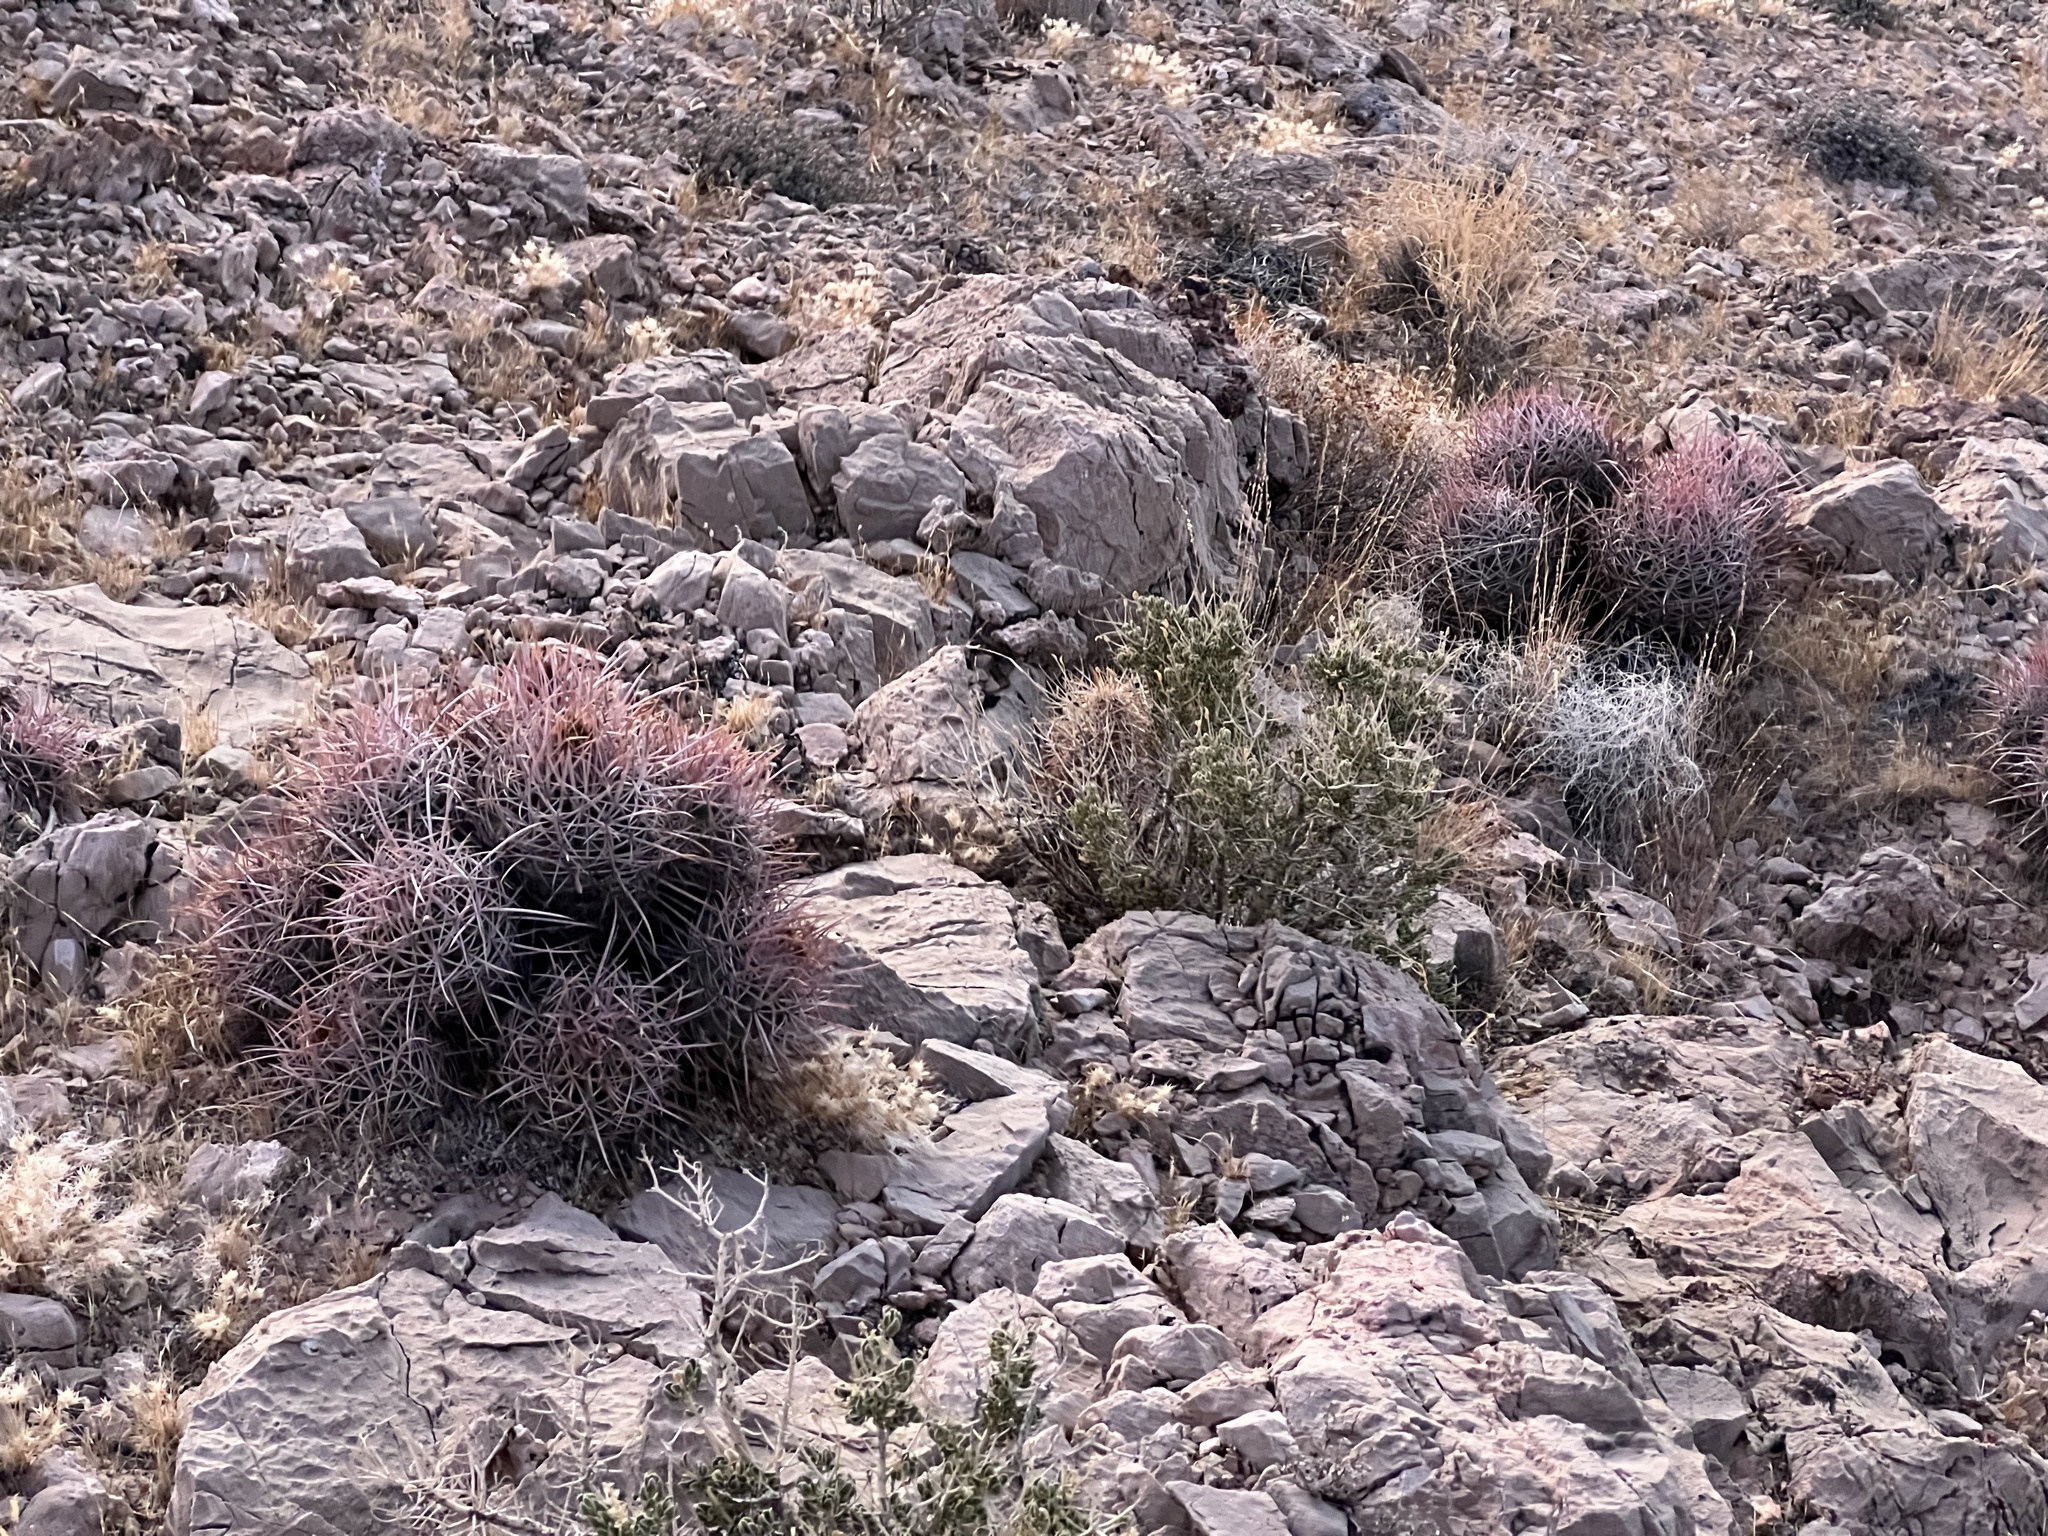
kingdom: Plantae
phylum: Tracheophyta
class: Magnoliopsida
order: Caryophyllales
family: Cactaceae
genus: Echinocactus
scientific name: Echinocactus polycephalus
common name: Cottontop cactus
